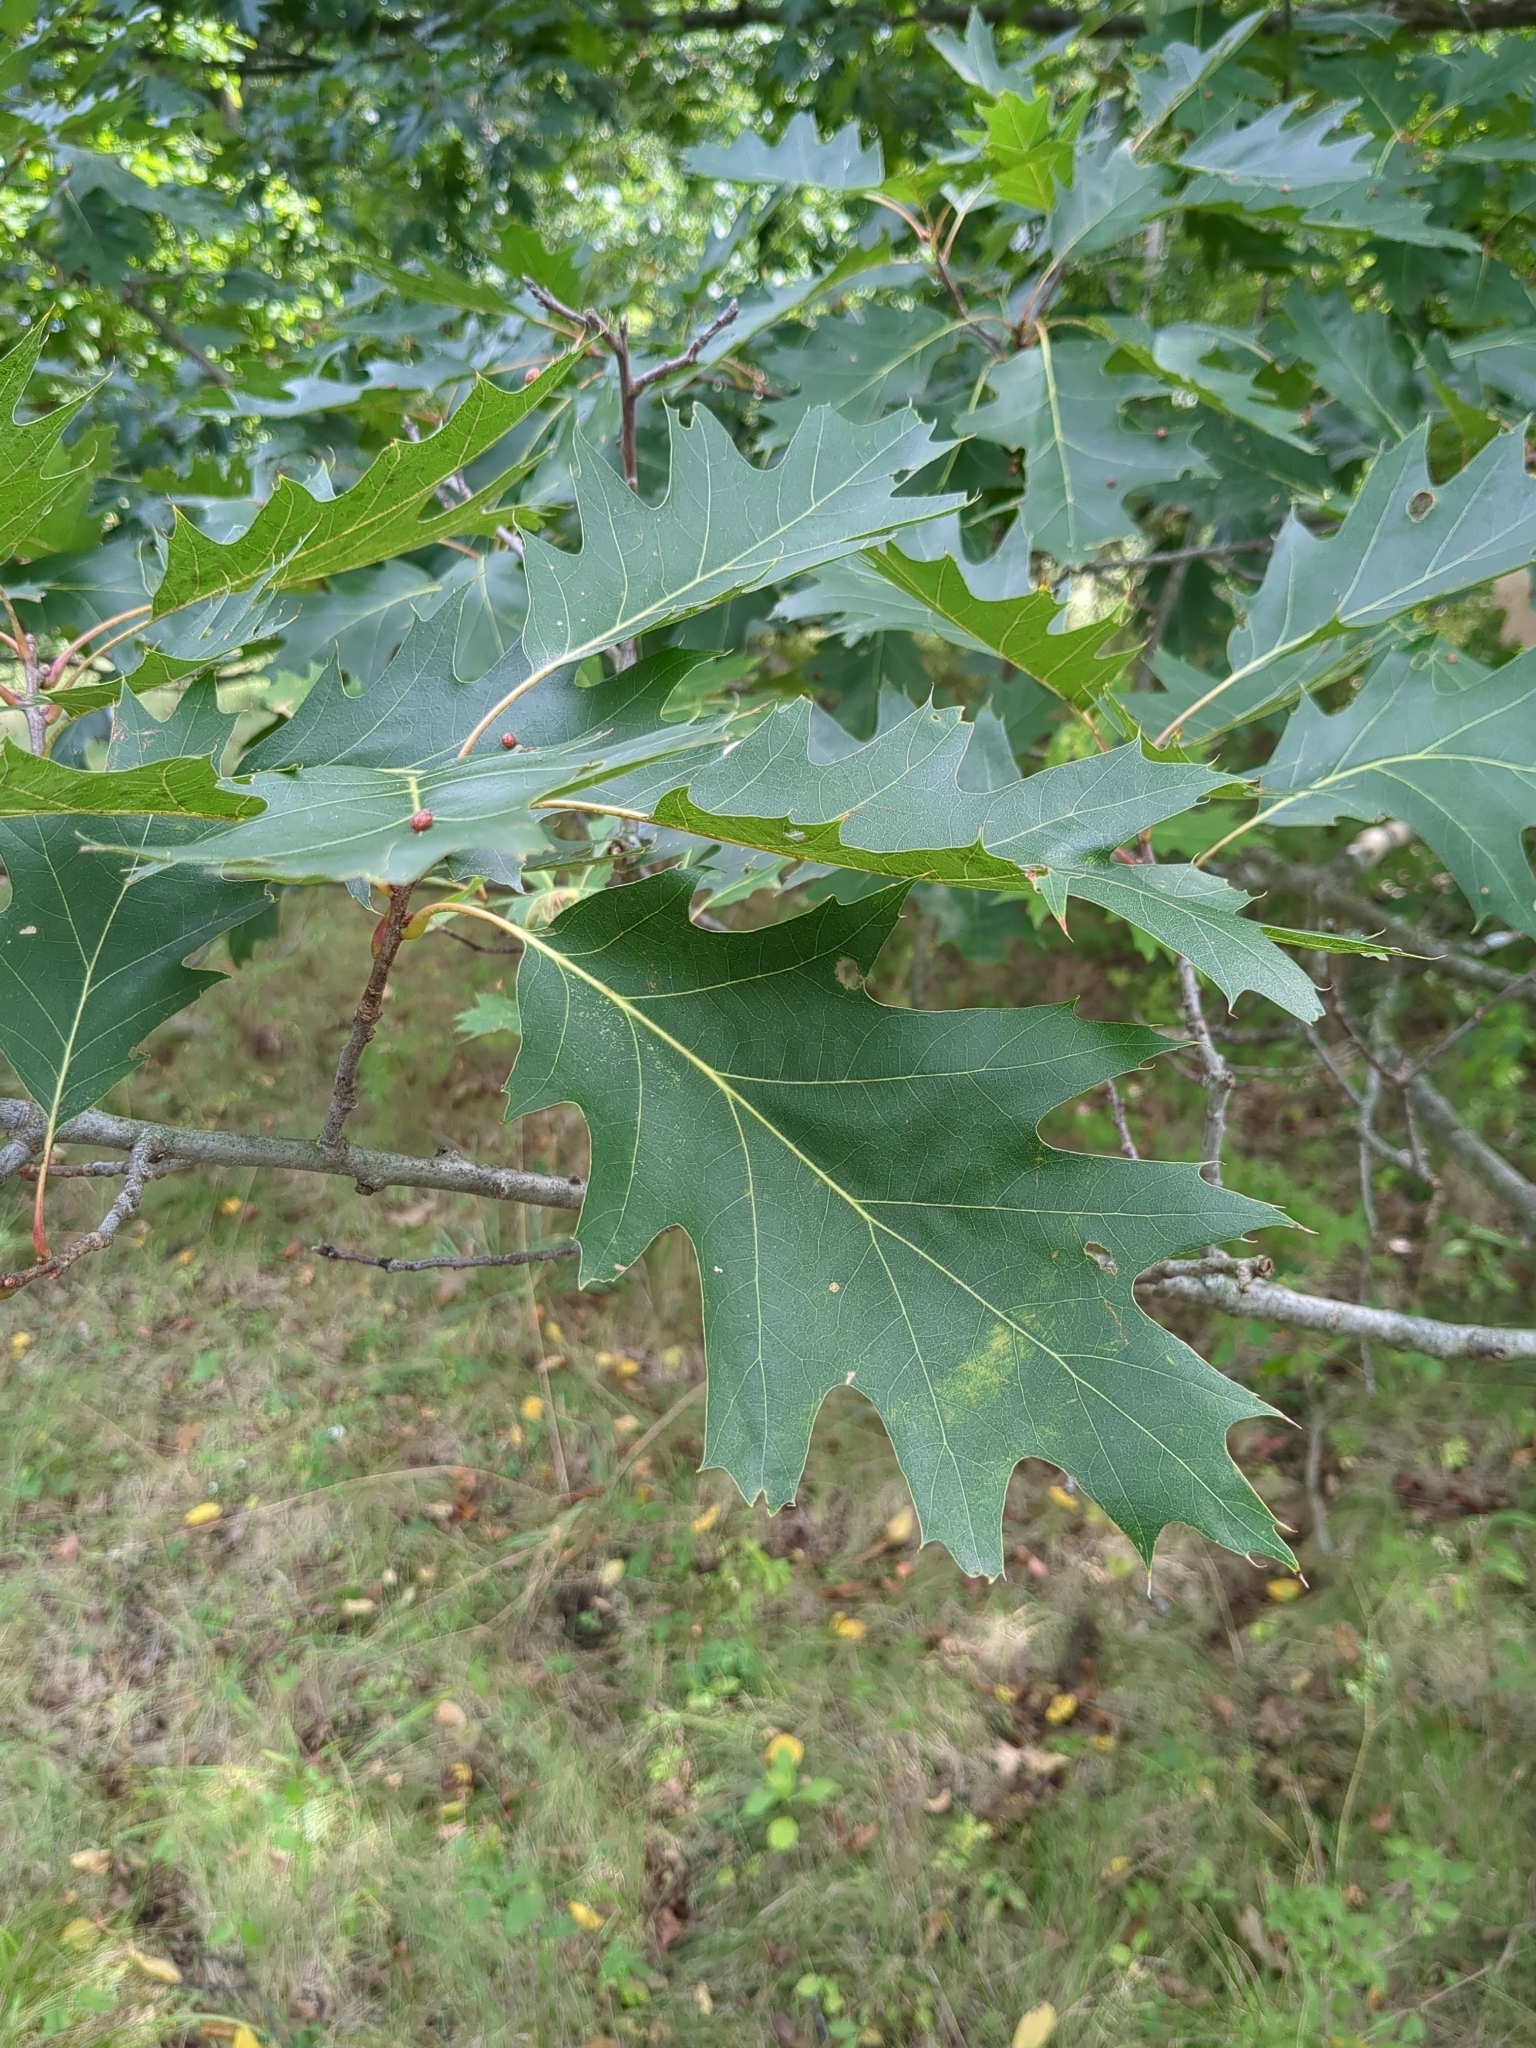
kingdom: Plantae
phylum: Tracheophyta
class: Magnoliopsida
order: Fagales
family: Fagaceae
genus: Quercus
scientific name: Quercus rubra
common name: Red oak
